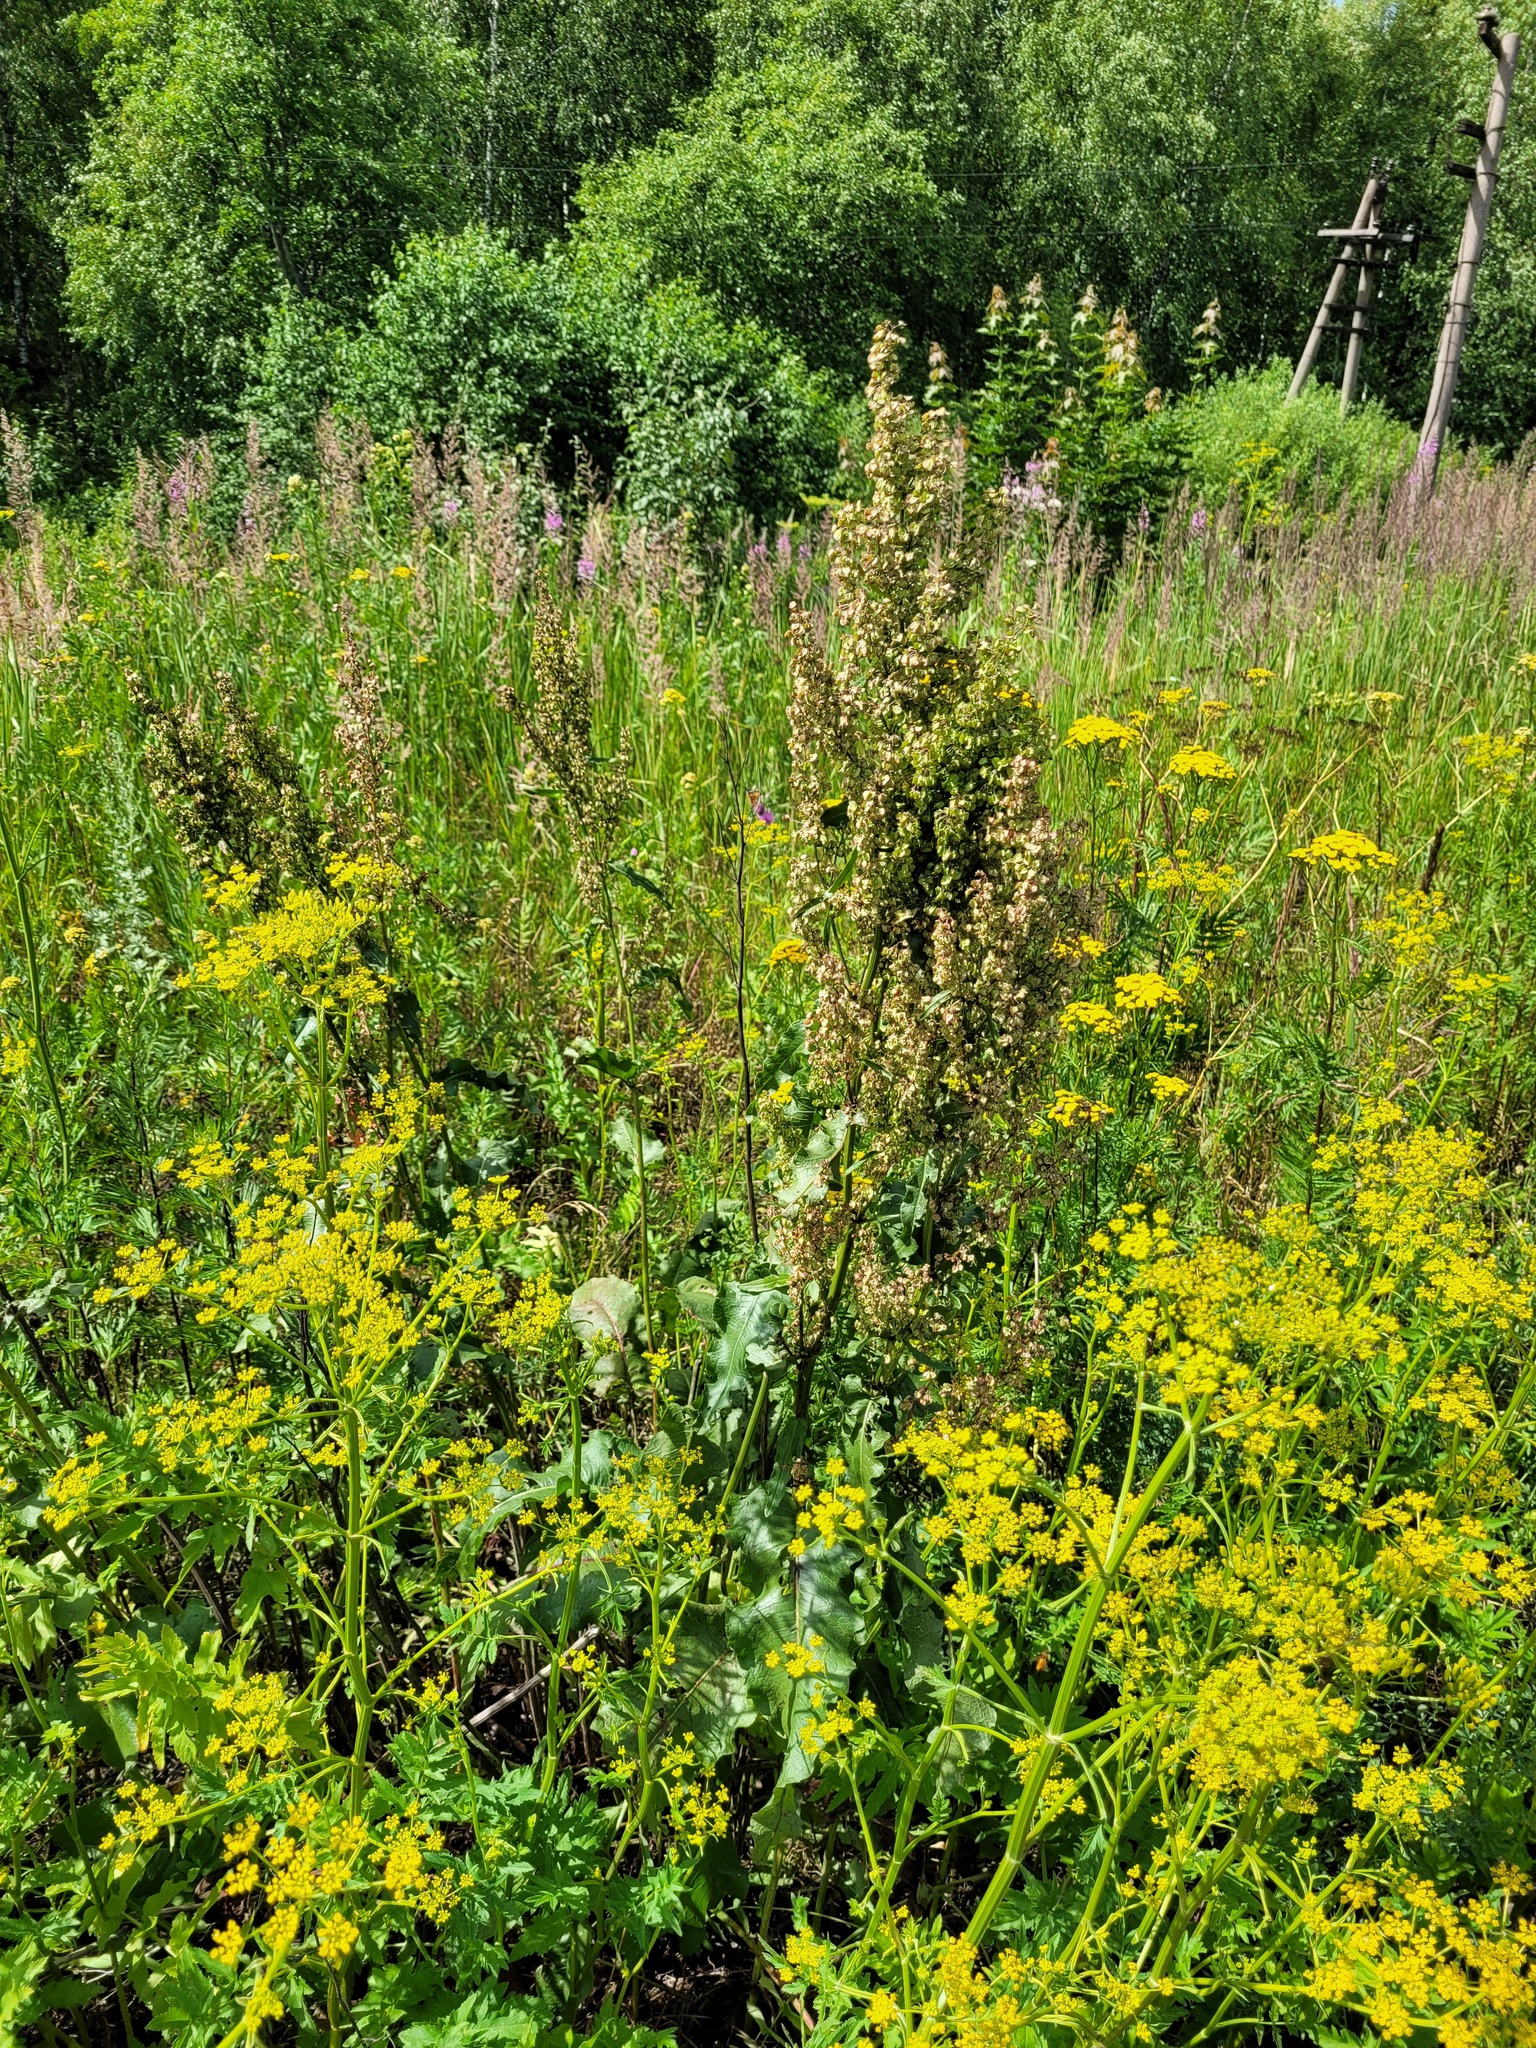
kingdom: Plantae
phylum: Tracheophyta
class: Magnoliopsida
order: Caryophyllales
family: Polygonaceae
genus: Rumex
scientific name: Rumex confertus
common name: Russian dock
